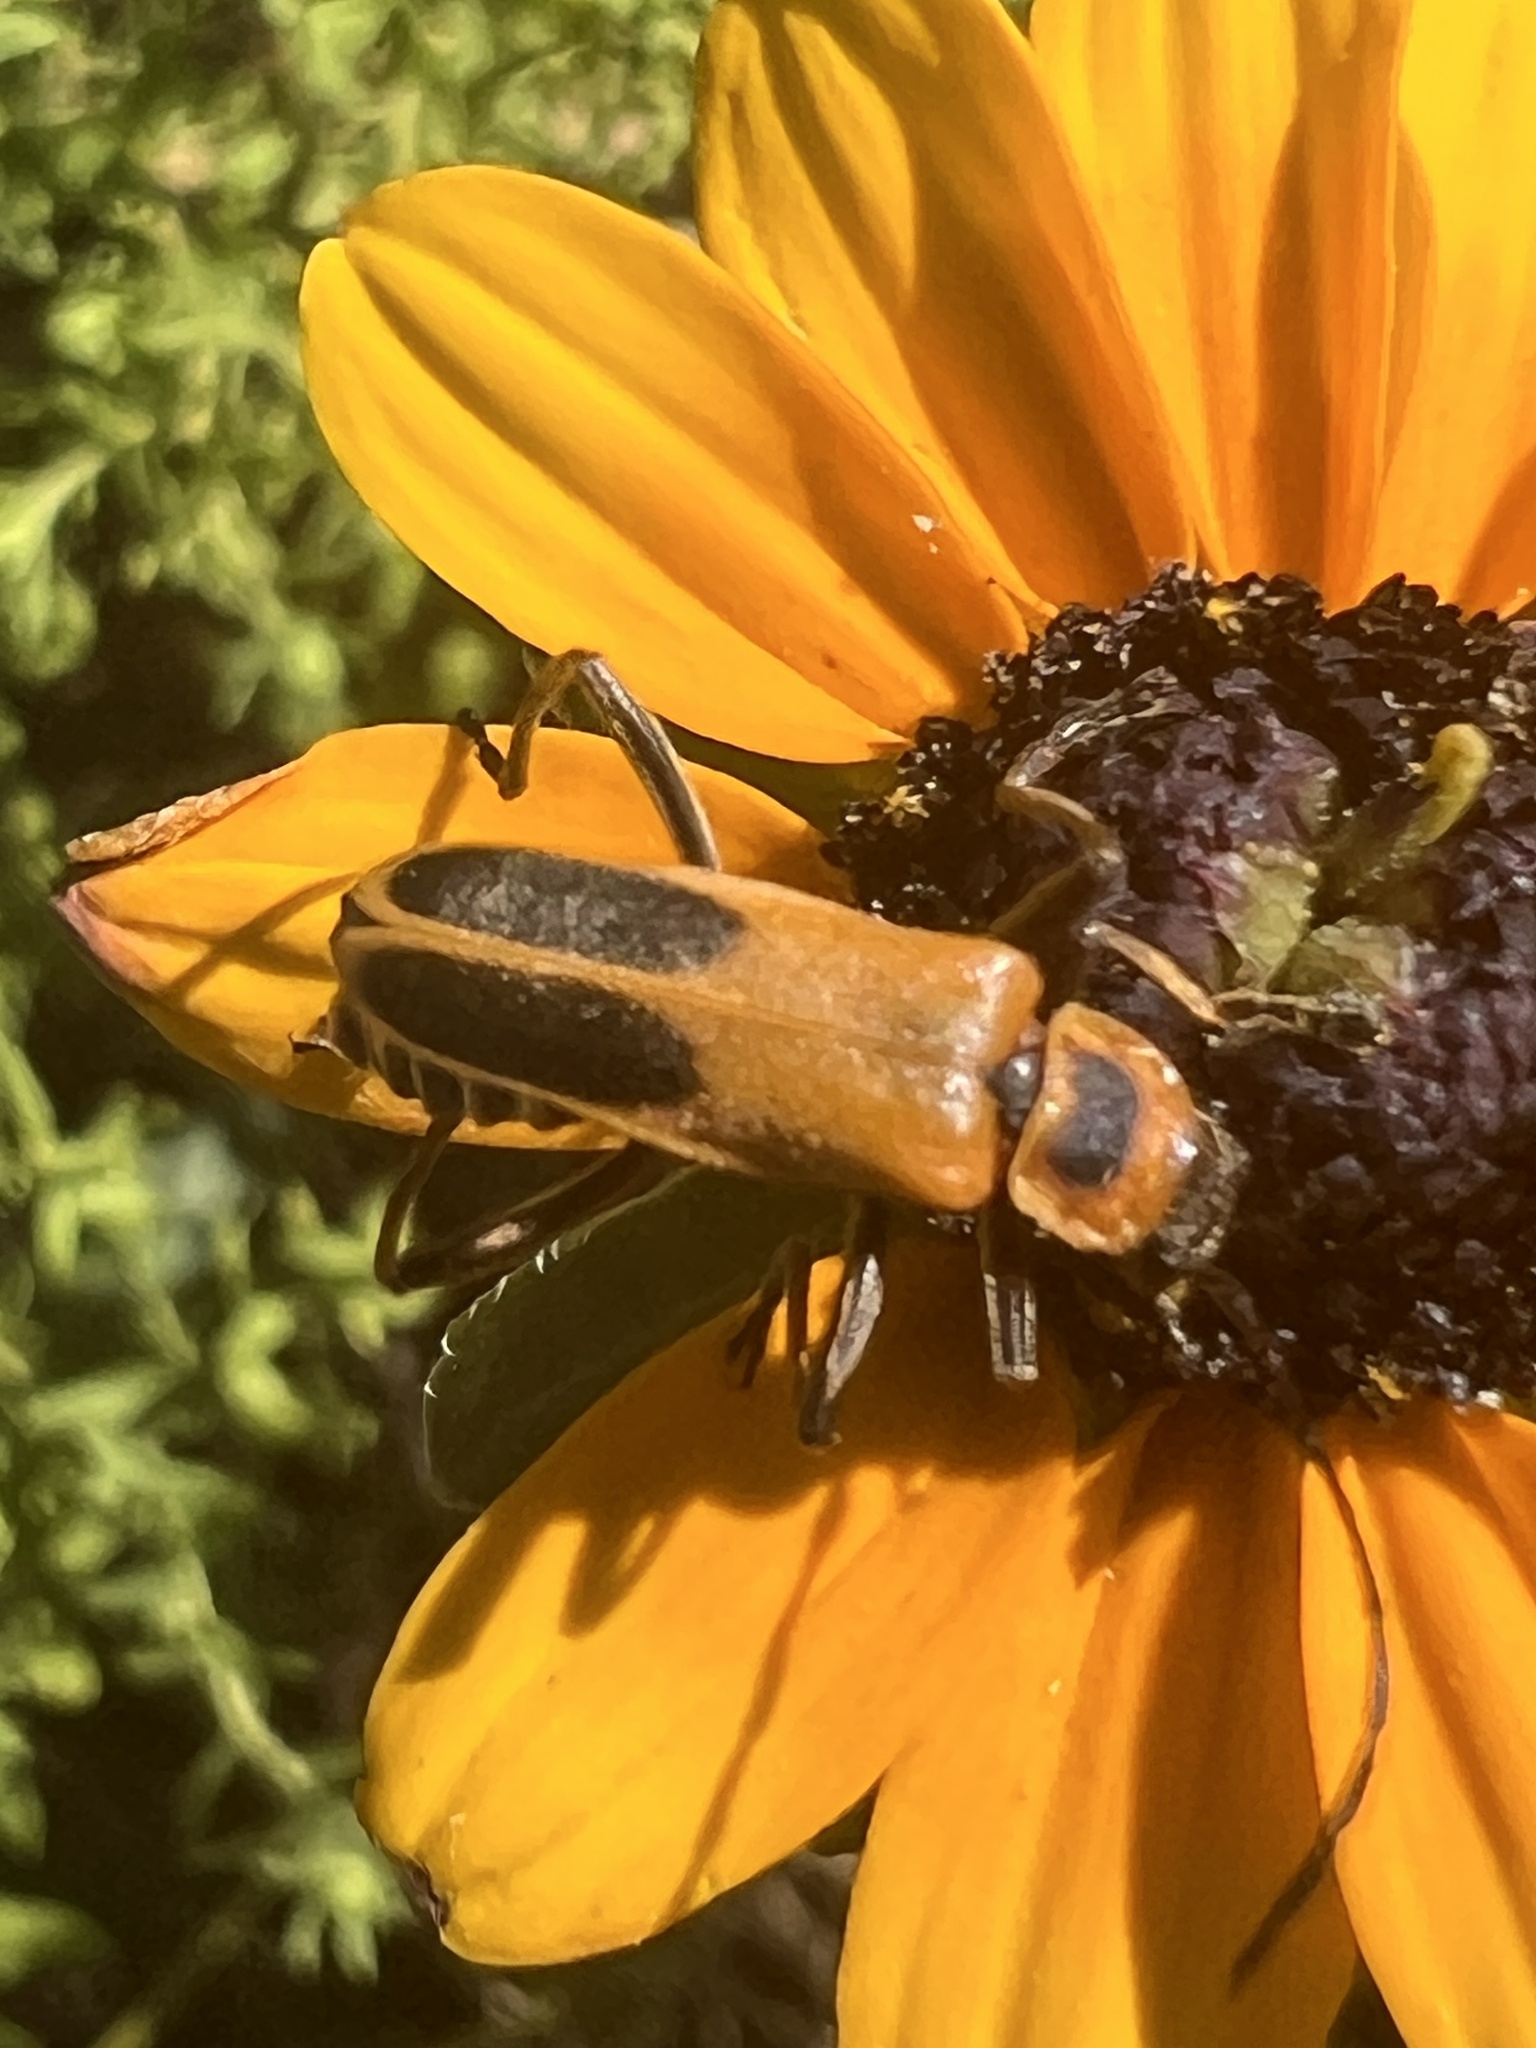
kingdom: Animalia
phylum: Arthropoda
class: Insecta
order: Coleoptera
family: Cantharidae
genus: Chauliognathus
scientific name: Chauliognathus pensylvanicus
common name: Goldenrod soldier beetle
